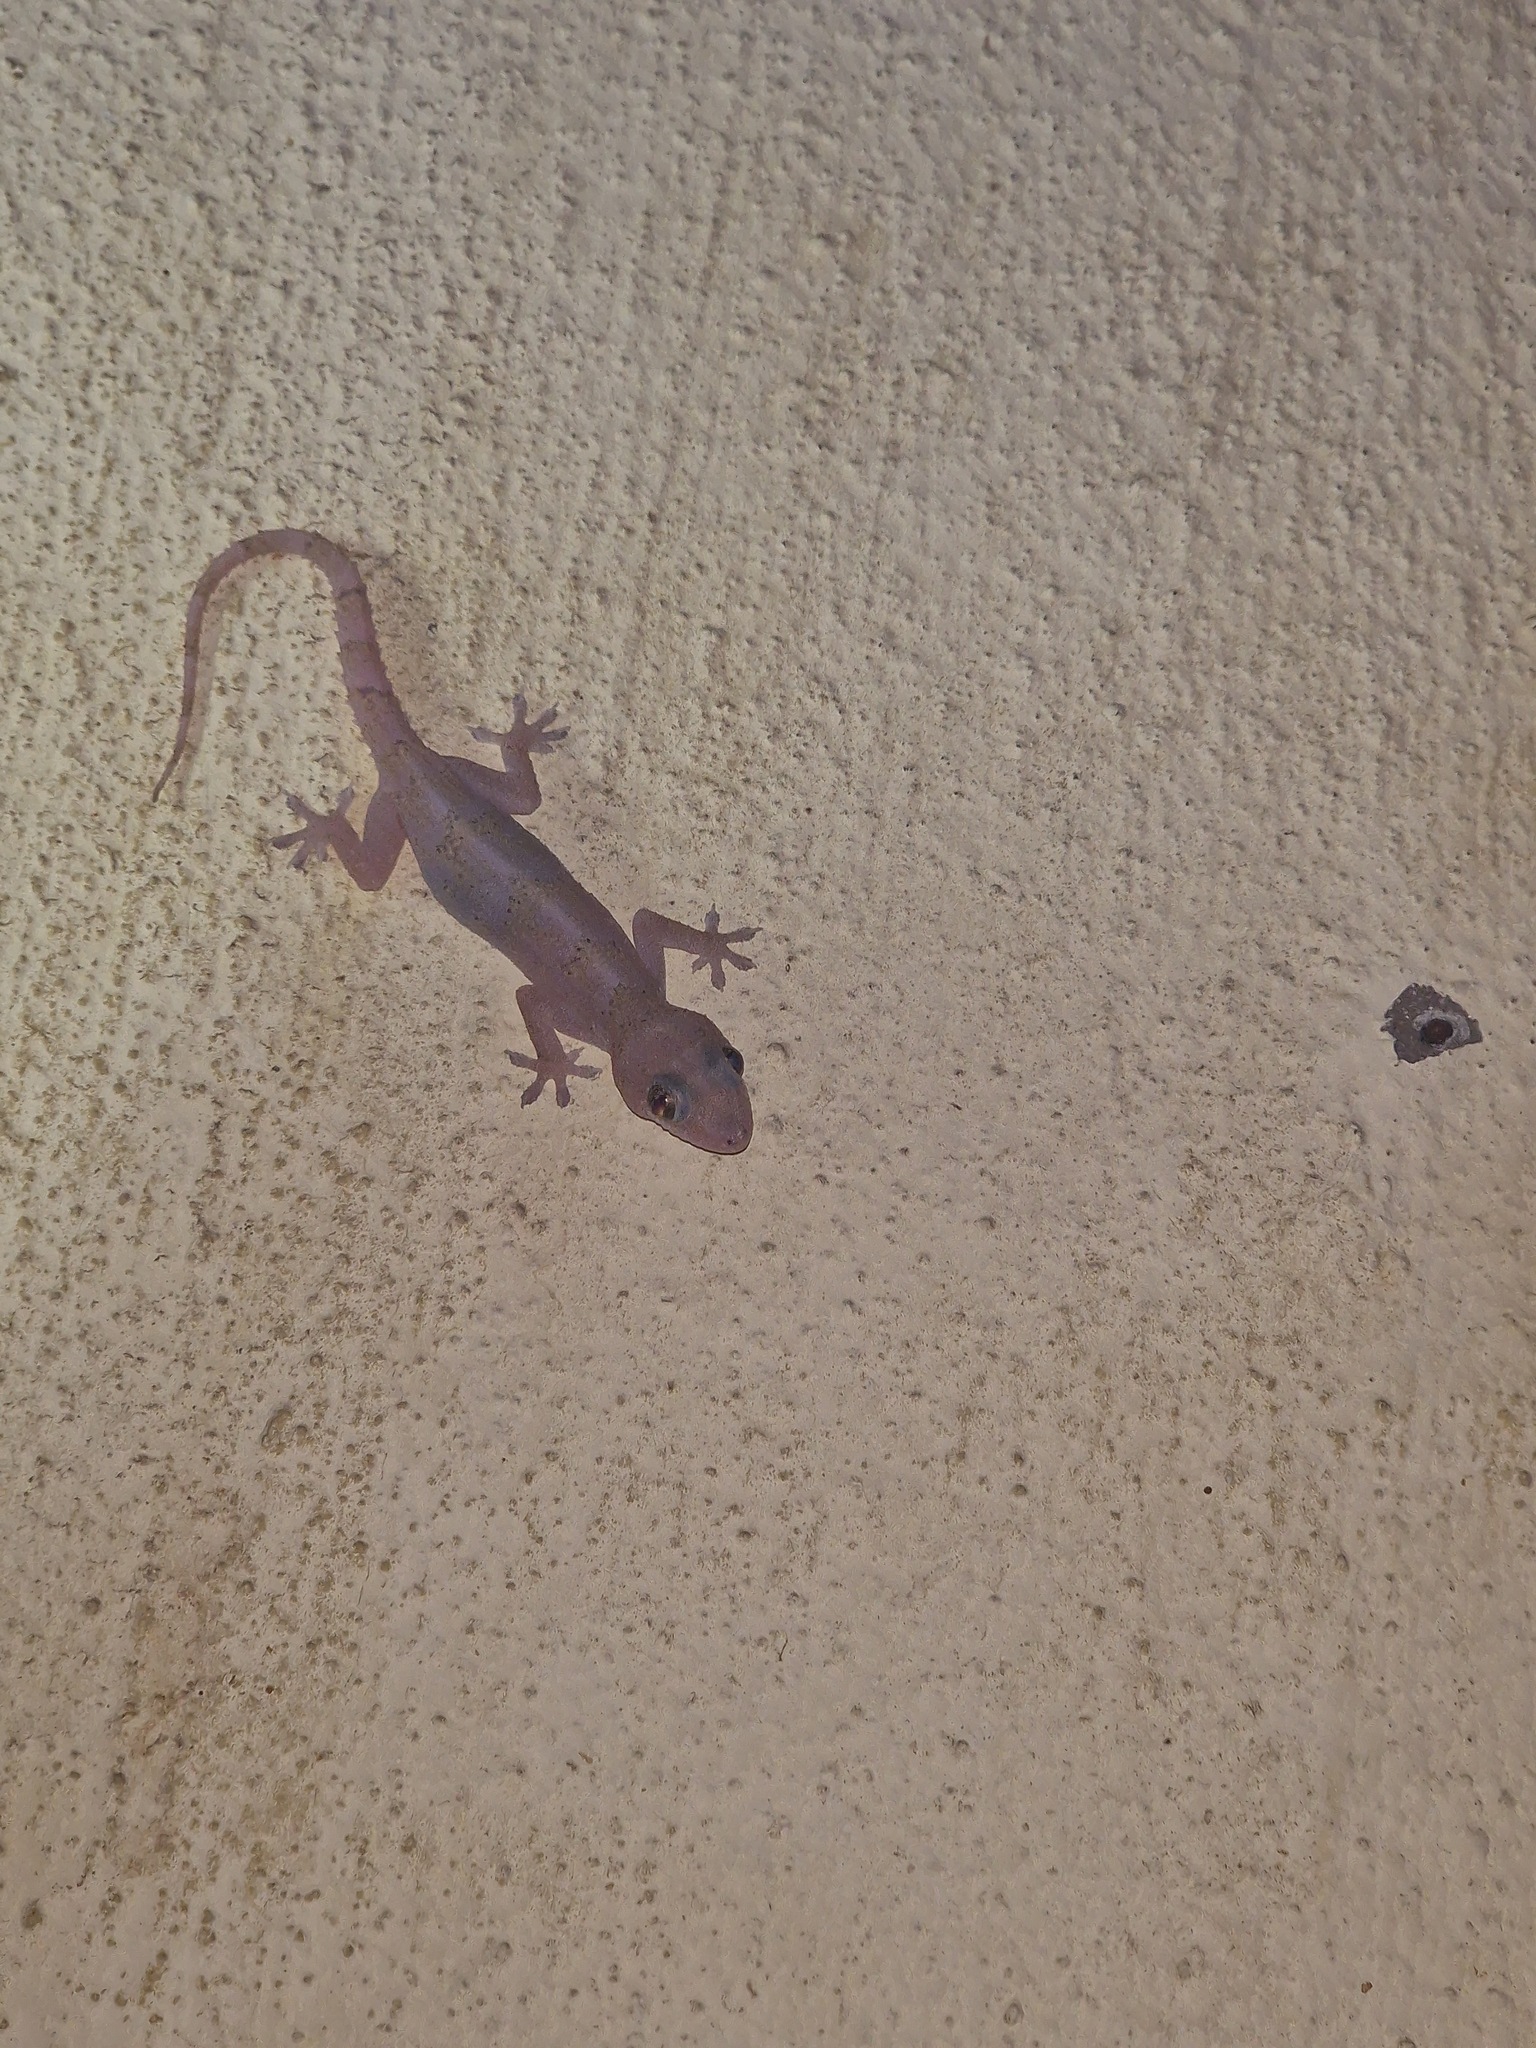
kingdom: Animalia
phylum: Chordata
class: Squamata
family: Gekkonidae
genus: Hemidactylus
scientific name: Hemidactylus mabouia
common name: House gecko
